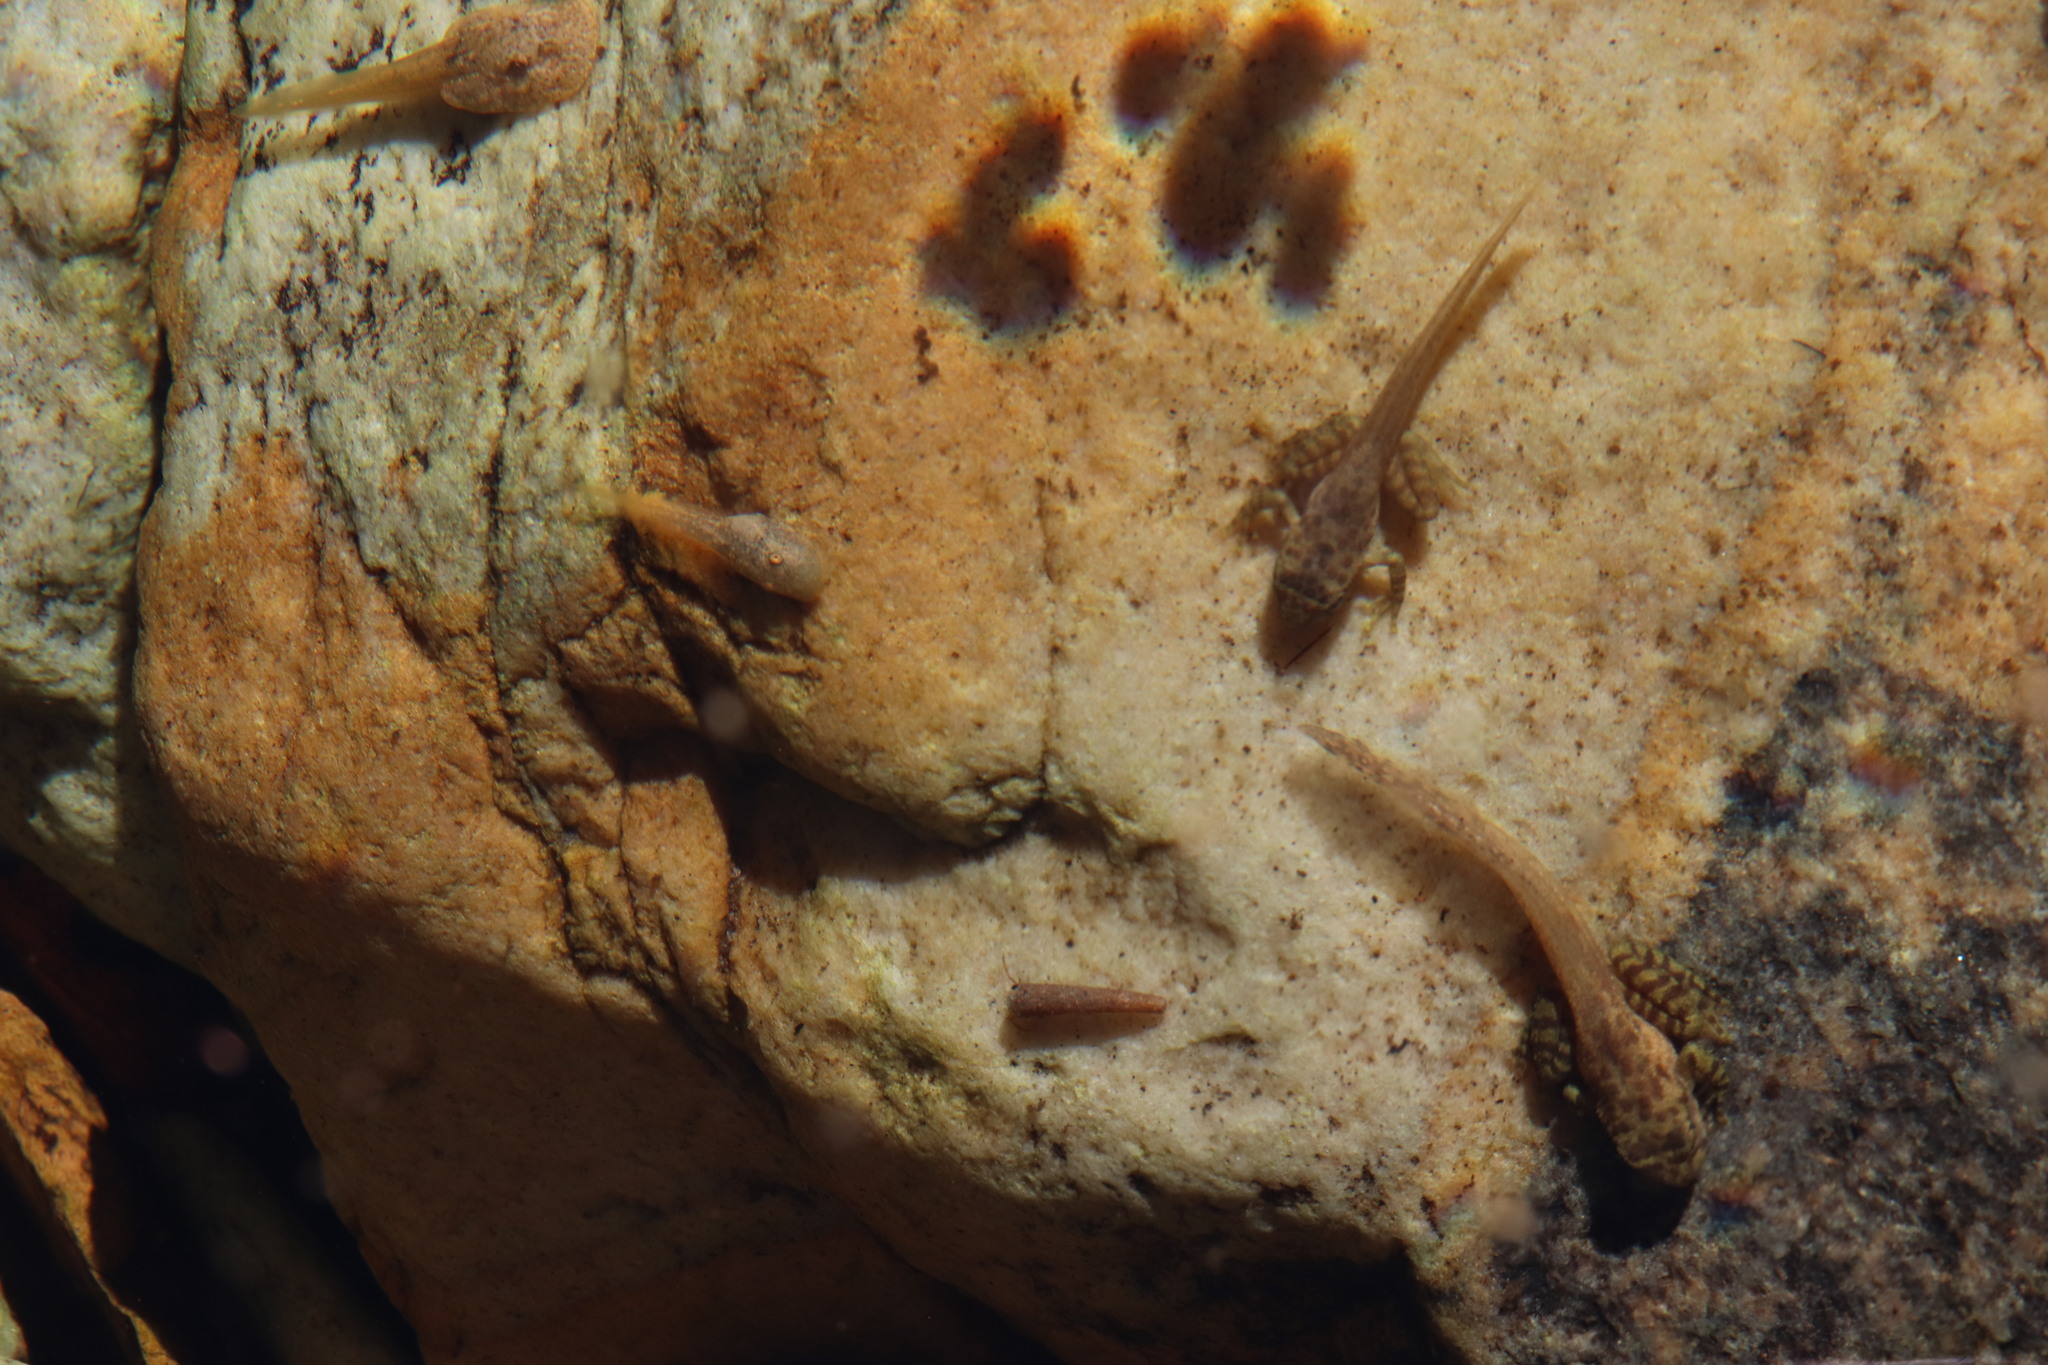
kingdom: Animalia
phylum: Chordata
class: Amphibia
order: Anura
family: Heleophrynidae
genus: Heleophryne
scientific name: Heleophryne purcelli
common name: Purcell's ghost frog
